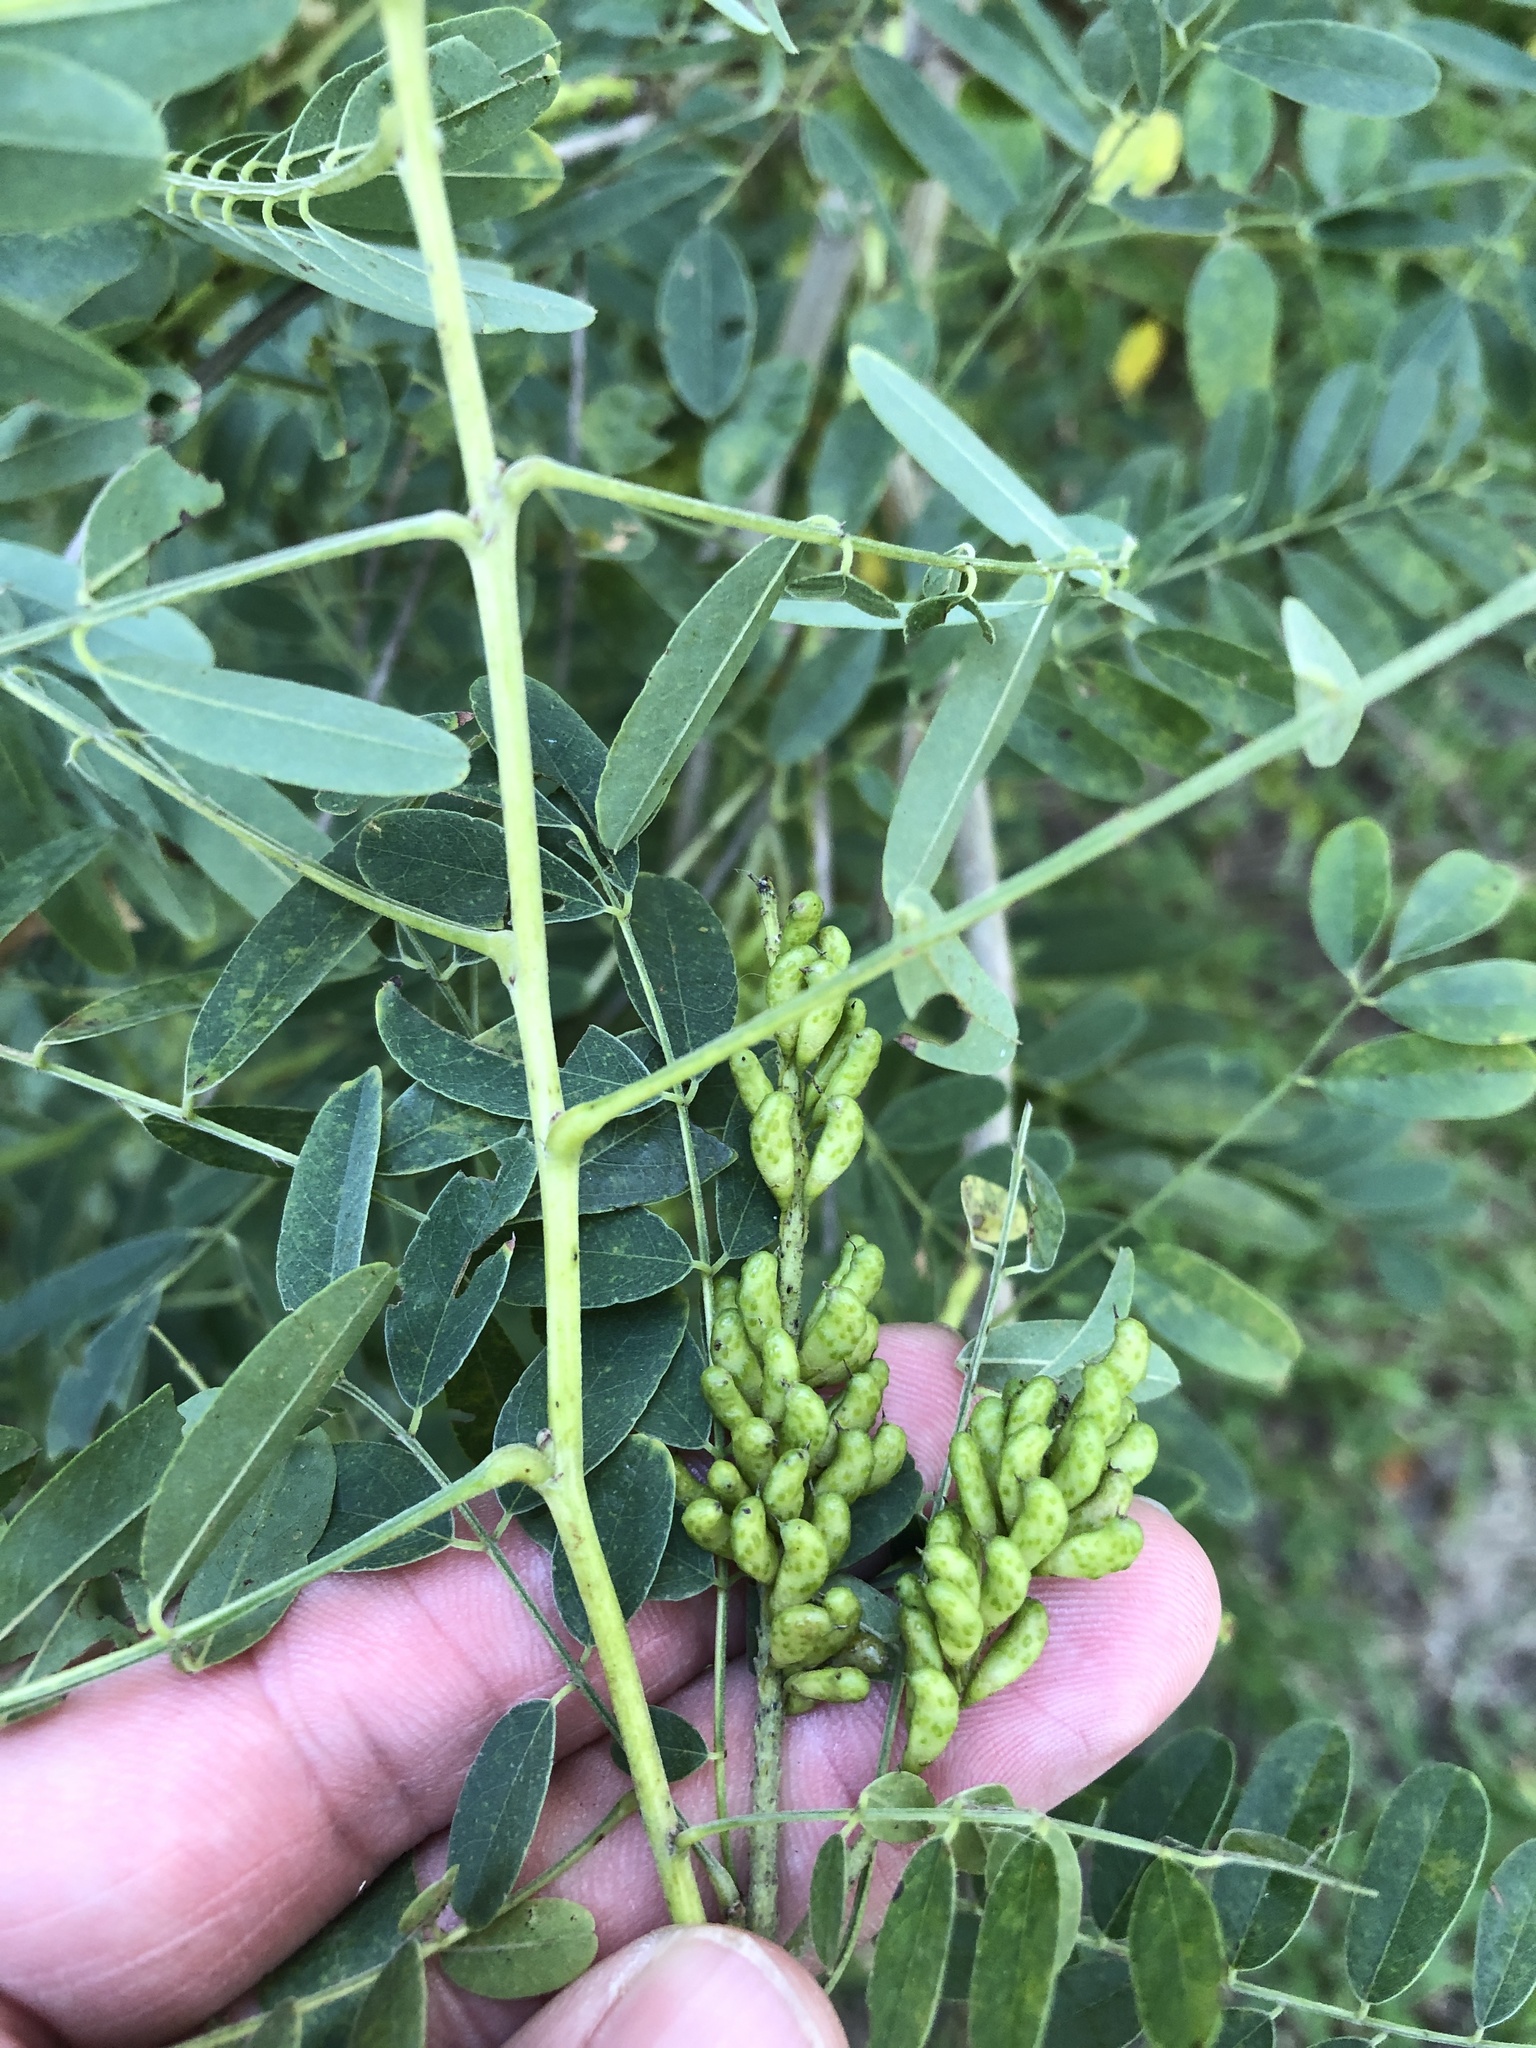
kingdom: Plantae
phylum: Tracheophyta
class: Magnoliopsida
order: Fabales
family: Fabaceae
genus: Amorpha
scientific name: Amorpha fruticosa
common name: False indigo
